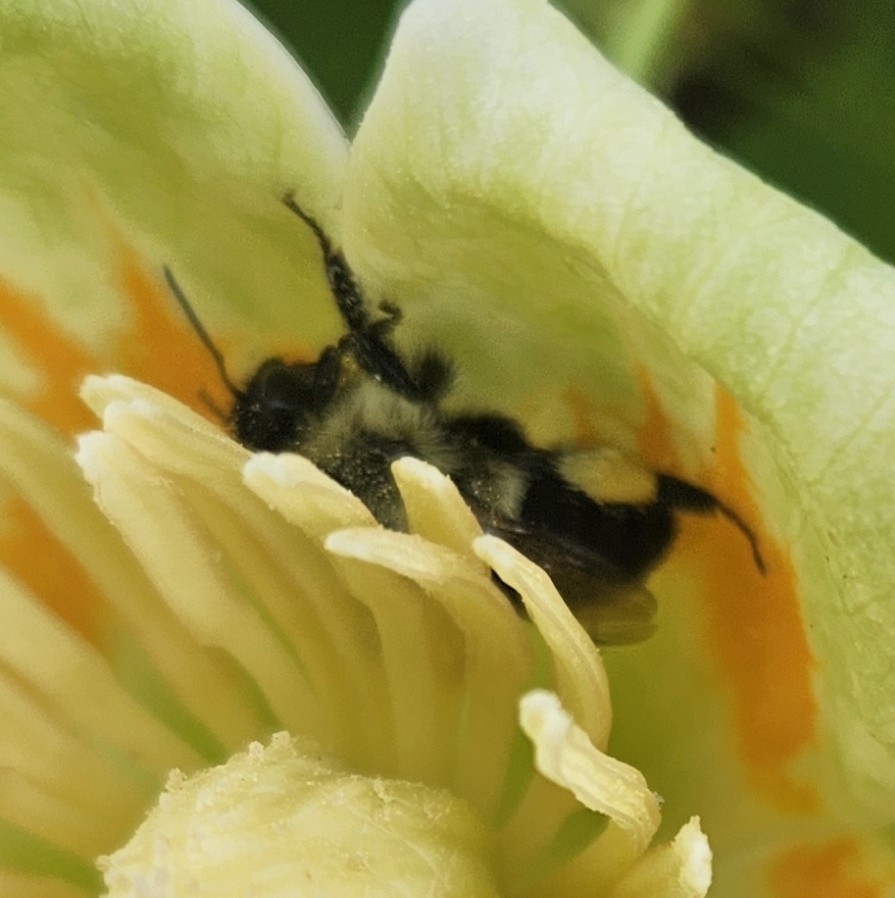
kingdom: Animalia
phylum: Arthropoda
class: Insecta
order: Hymenoptera
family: Apidae
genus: Bombus
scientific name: Bombus impatiens
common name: Common eastern bumble bee
